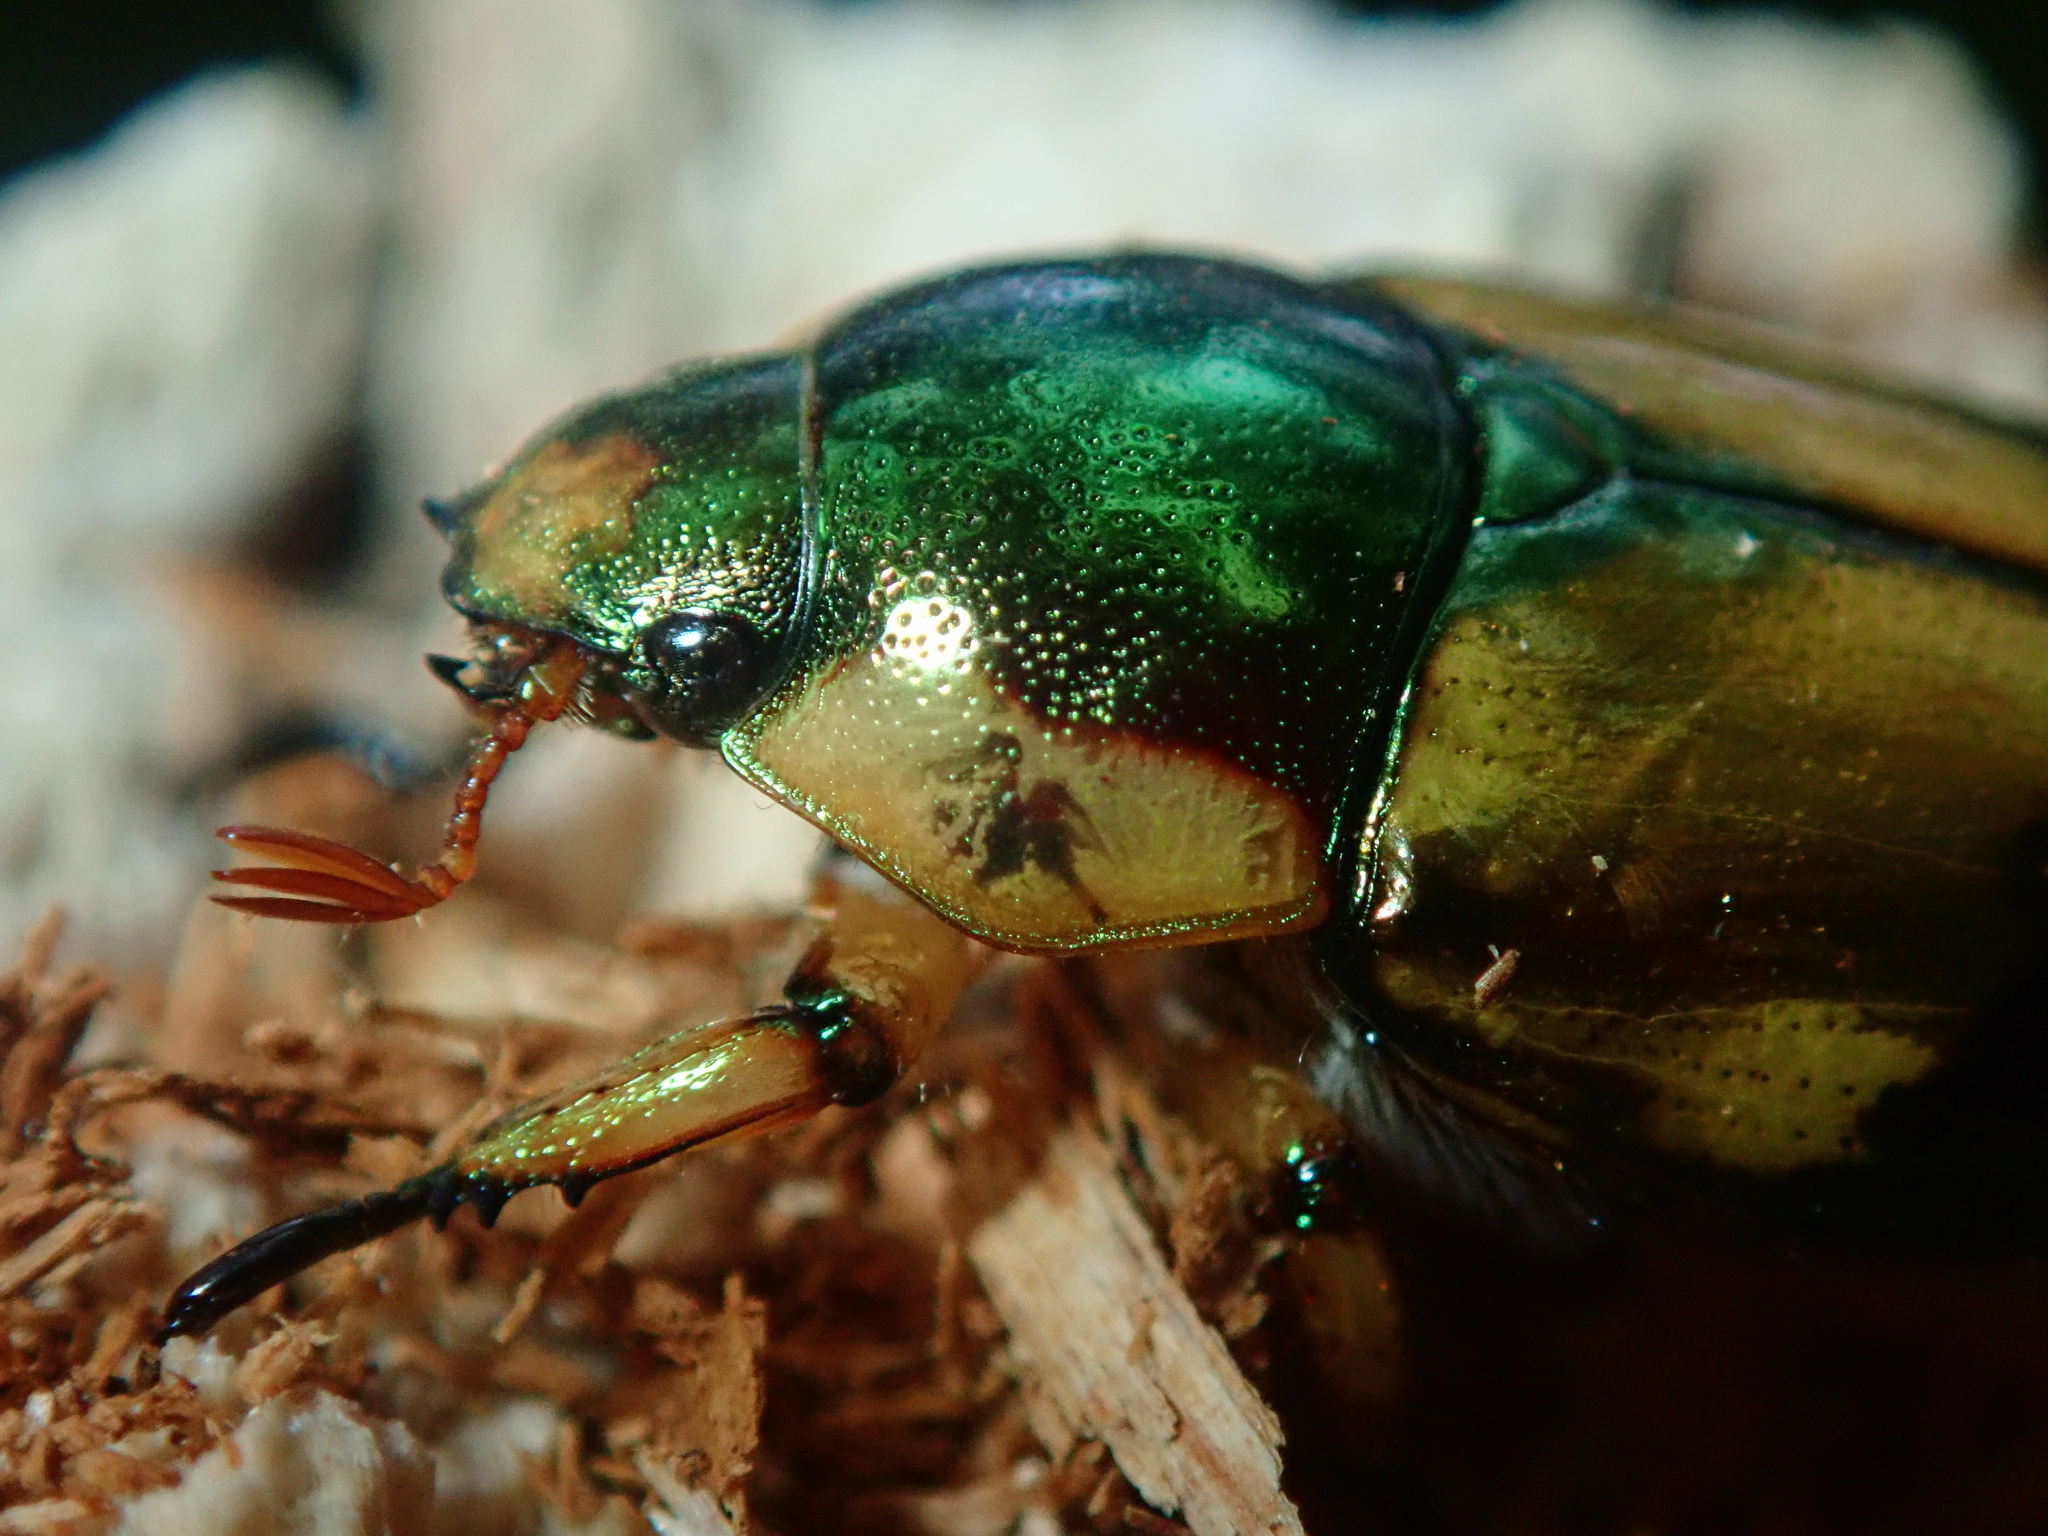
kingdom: Animalia
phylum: Arthropoda
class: Insecta
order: Coleoptera
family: Scarabaeidae
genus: Pelidnota
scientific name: Pelidnota pulchella
